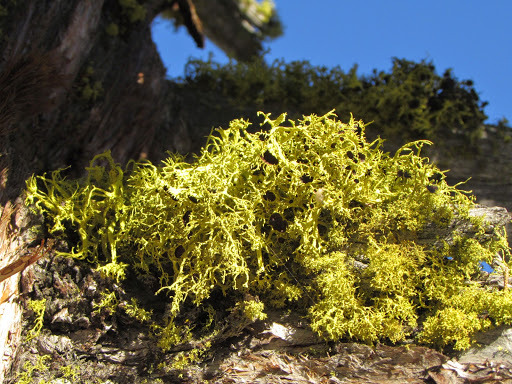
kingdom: Fungi
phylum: Ascomycota
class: Lecanoromycetes
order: Lecanorales
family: Parmeliaceae
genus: Letharia
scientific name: Letharia columbiana
